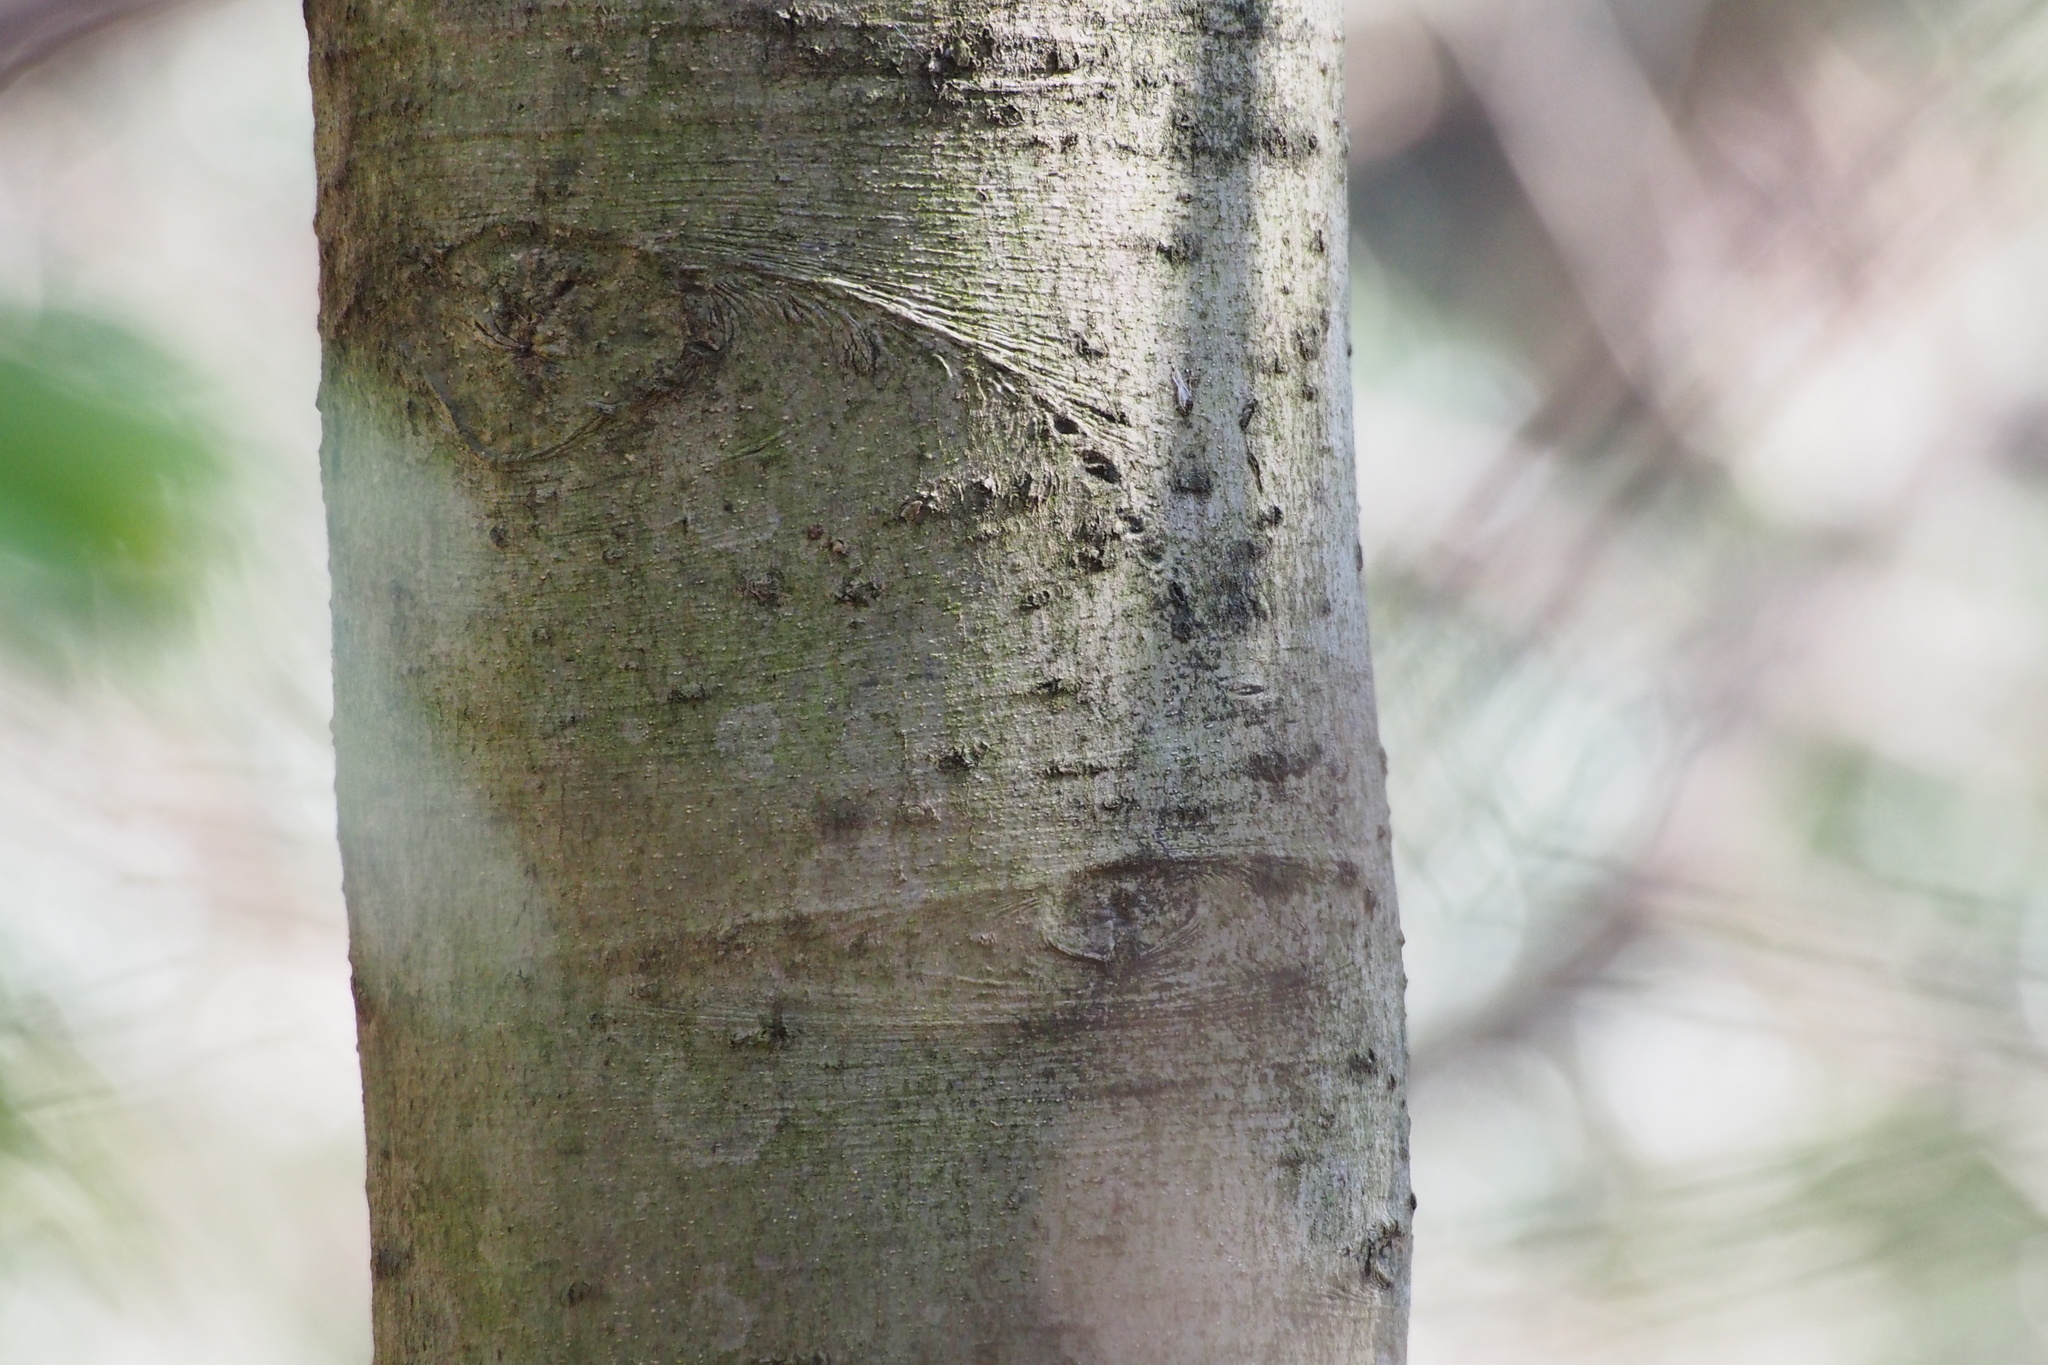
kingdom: Plantae
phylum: Tracheophyta
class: Magnoliopsida
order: Aquifoliales
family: Aquifoliaceae
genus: Ilex
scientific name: Ilex chinensis
